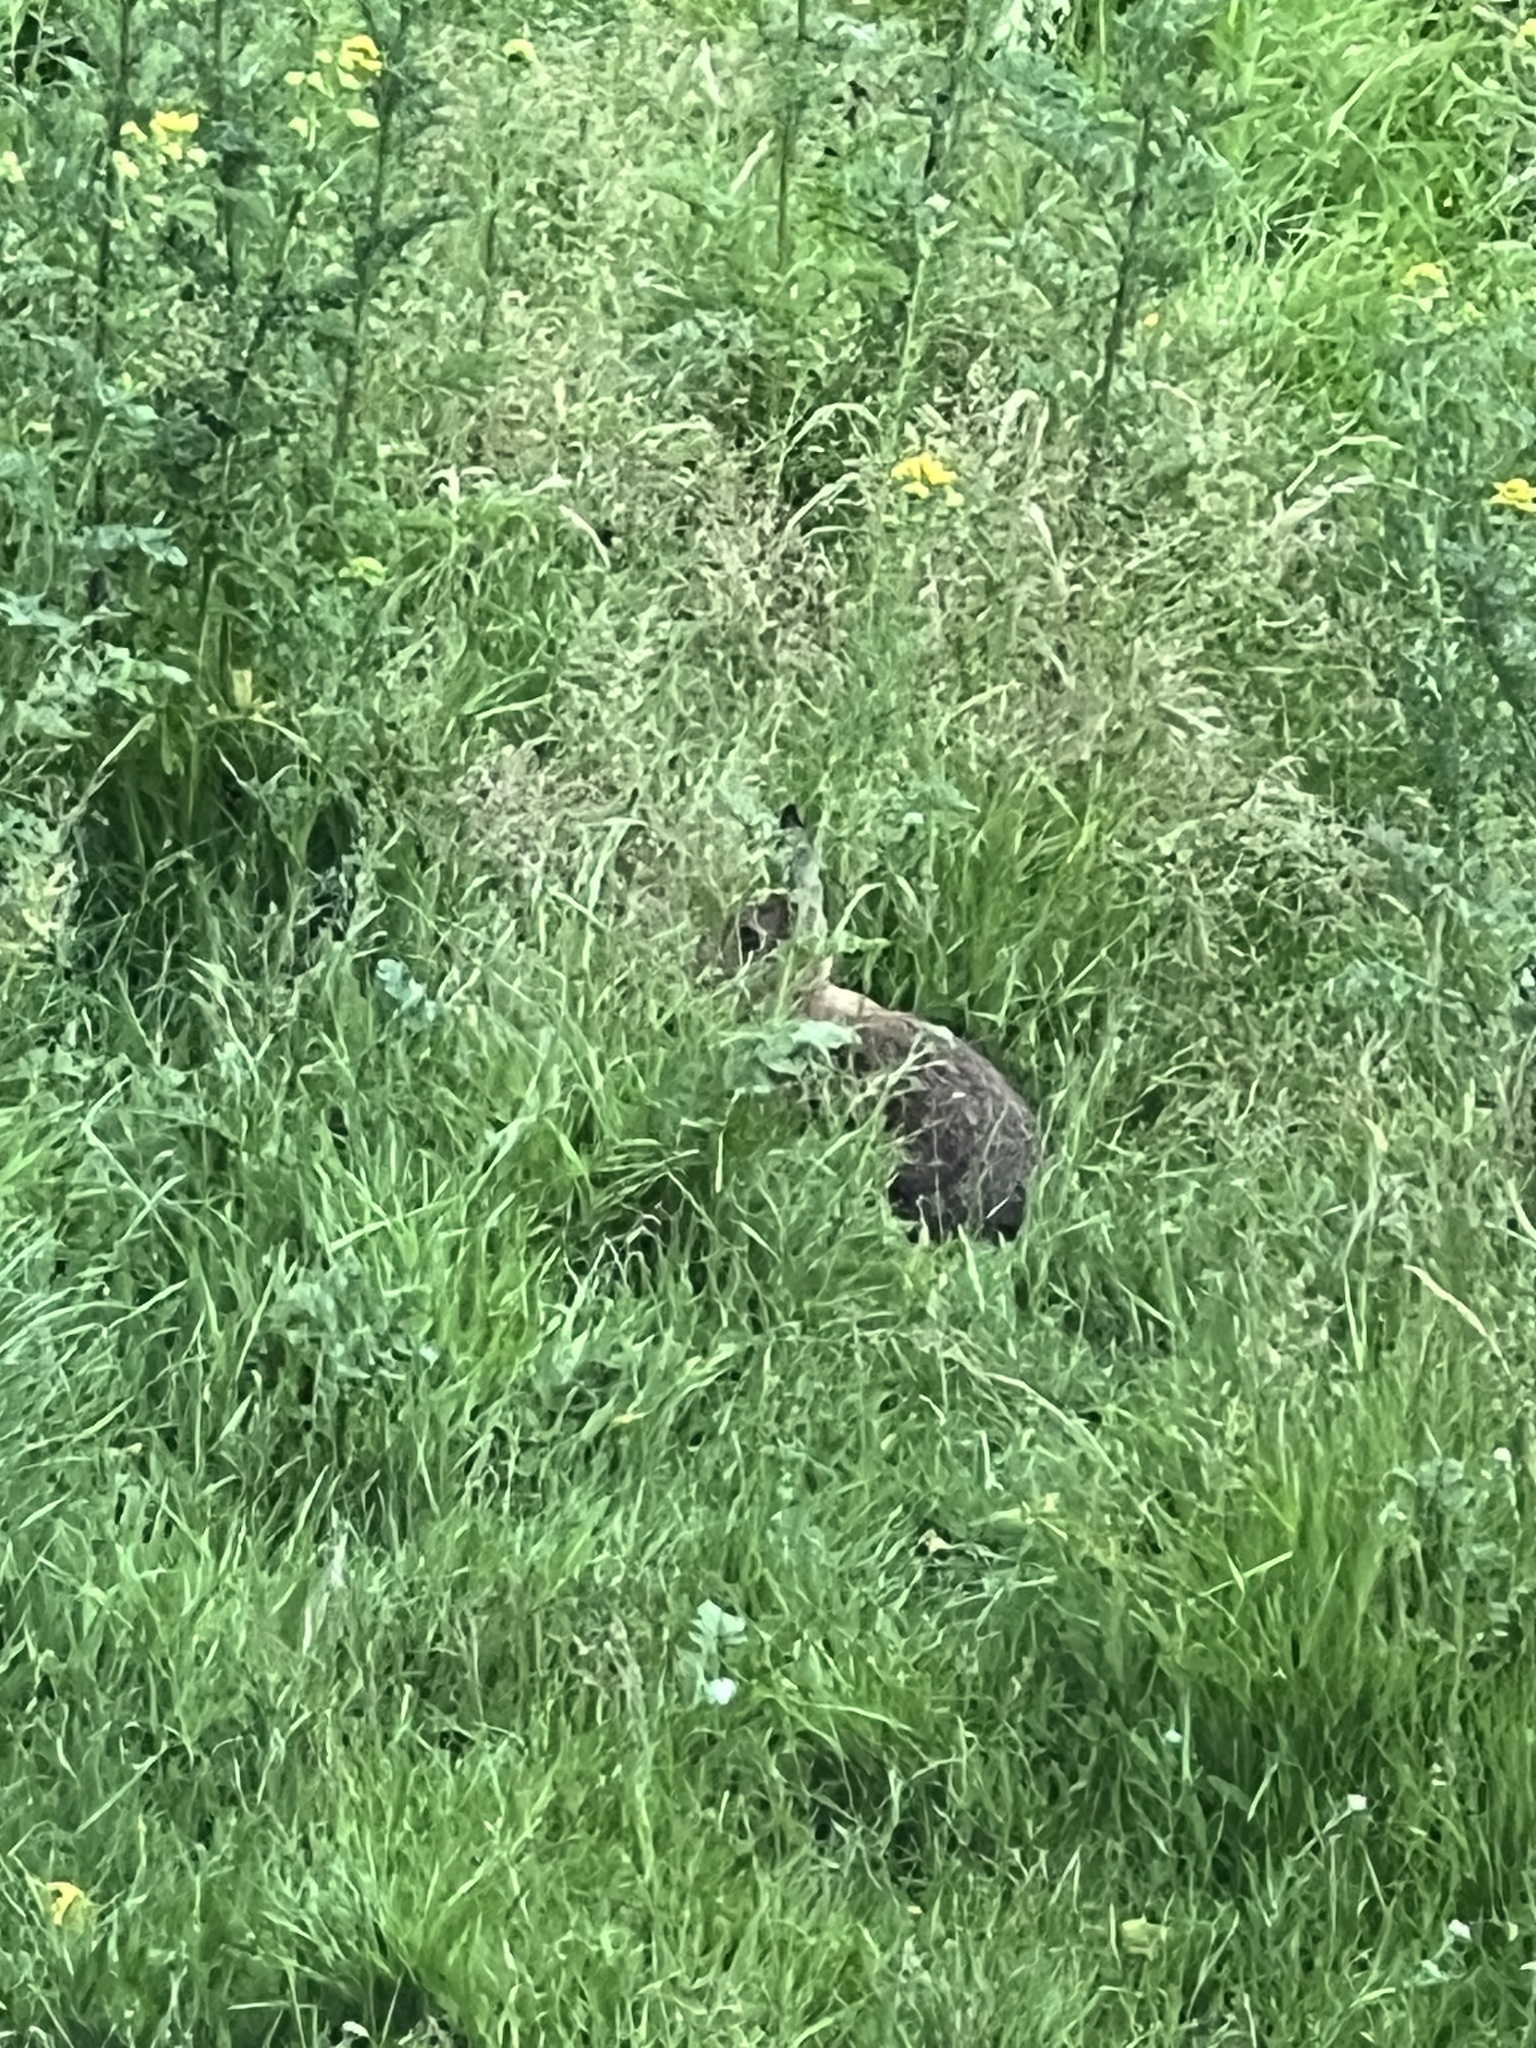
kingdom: Animalia
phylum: Chordata
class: Mammalia
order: Lagomorpha
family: Leporidae
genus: Oryctolagus
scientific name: Oryctolagus cuniculus
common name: European rabbit
